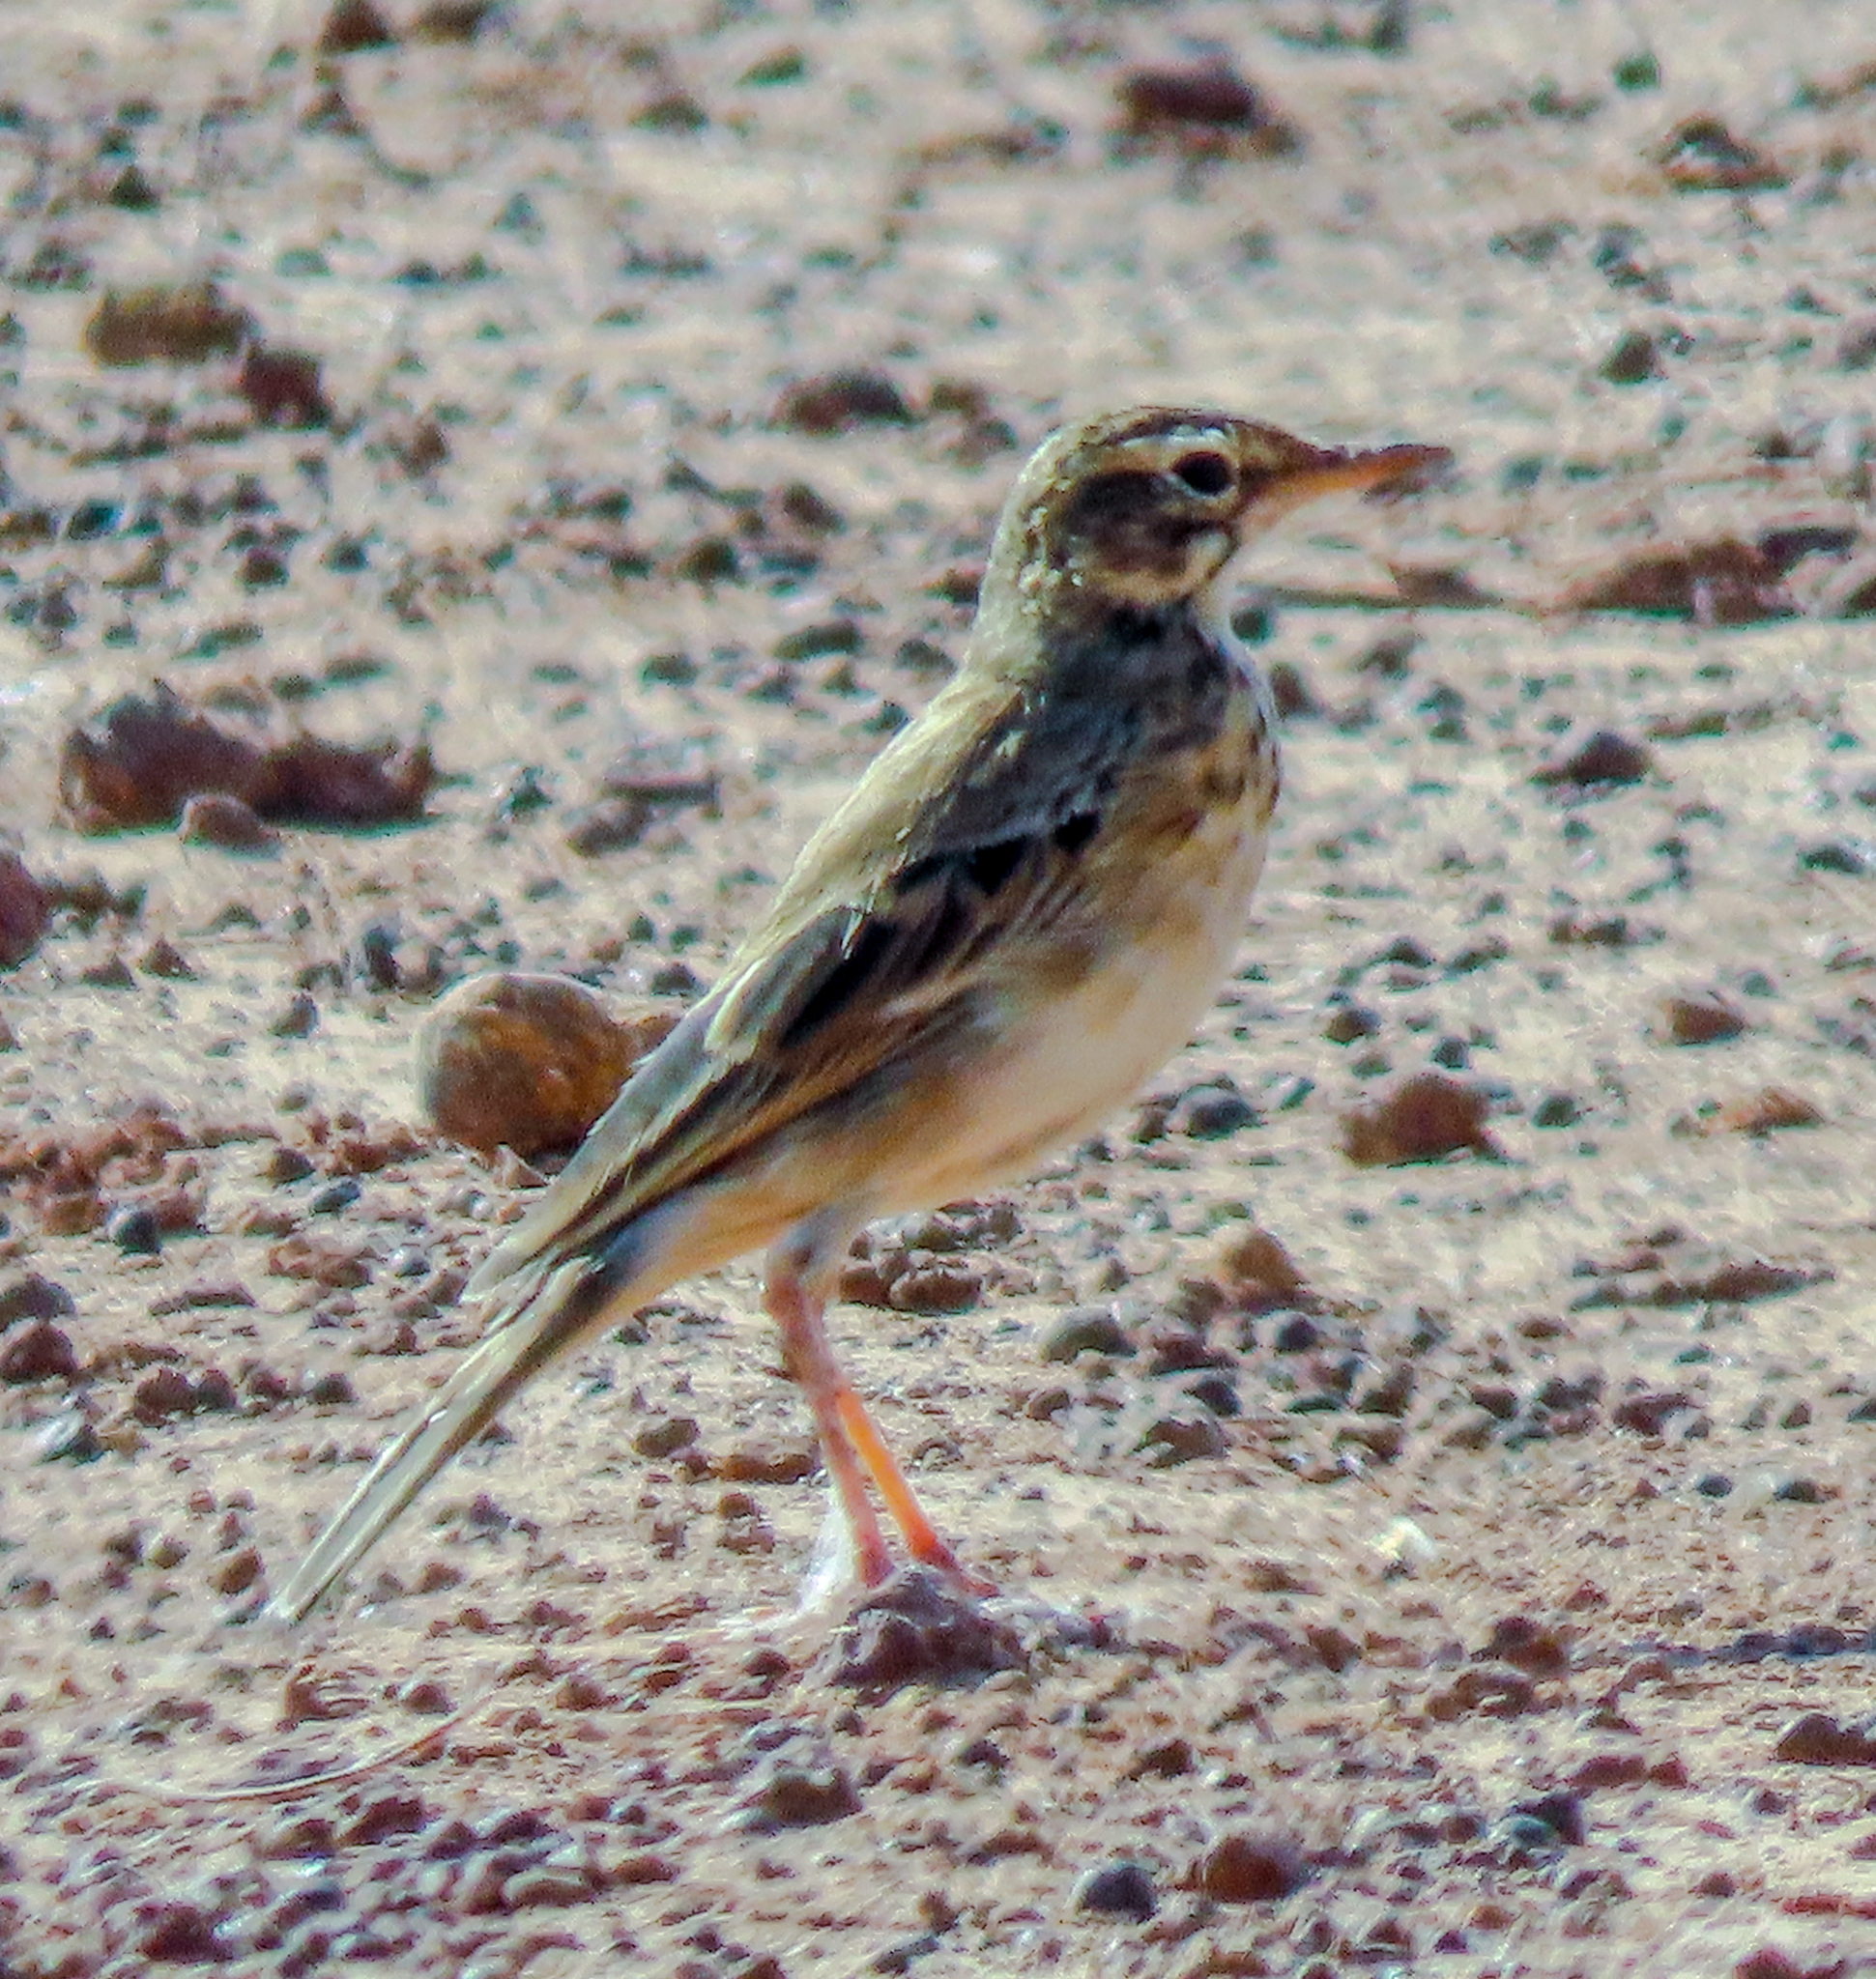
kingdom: Animalia
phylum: Chordata
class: Aves
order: Passeriformes
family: Motacillidae
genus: Anthus
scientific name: Anthus rufulus
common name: Paddyfield pipit
